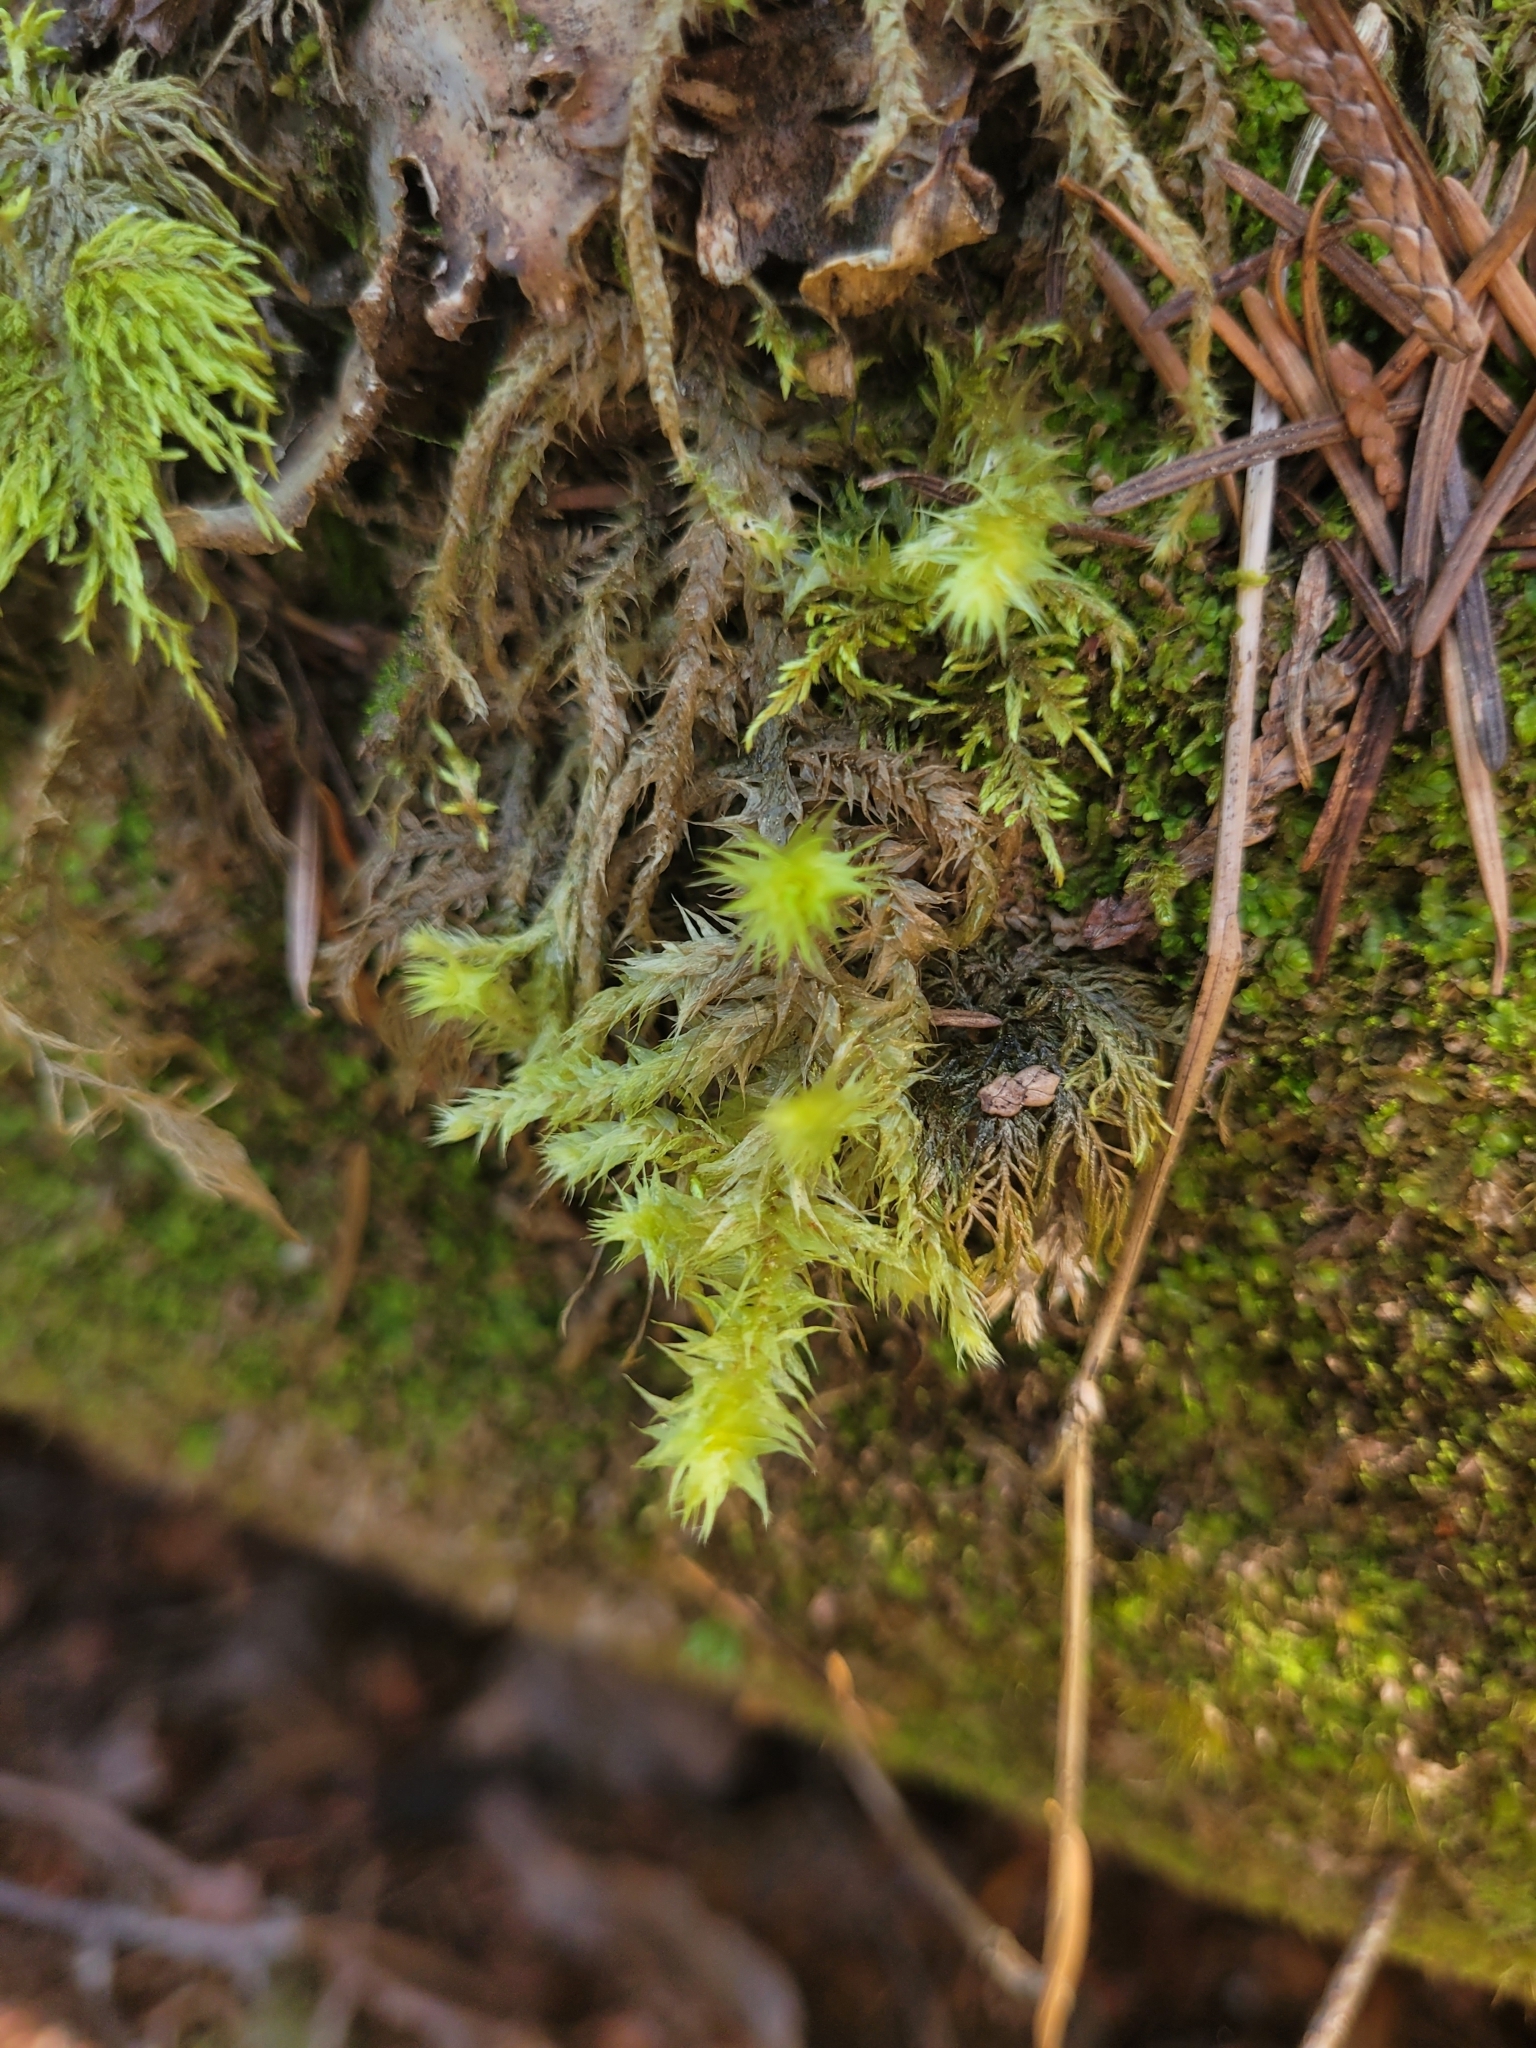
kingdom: Plantae
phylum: Bryophyta
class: Bryopsida
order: Hypnales
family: Hylocomiaceae
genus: Hylocomiadelphus
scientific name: Hylocomiadelphus triquetrus
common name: Rough goose neck moss
